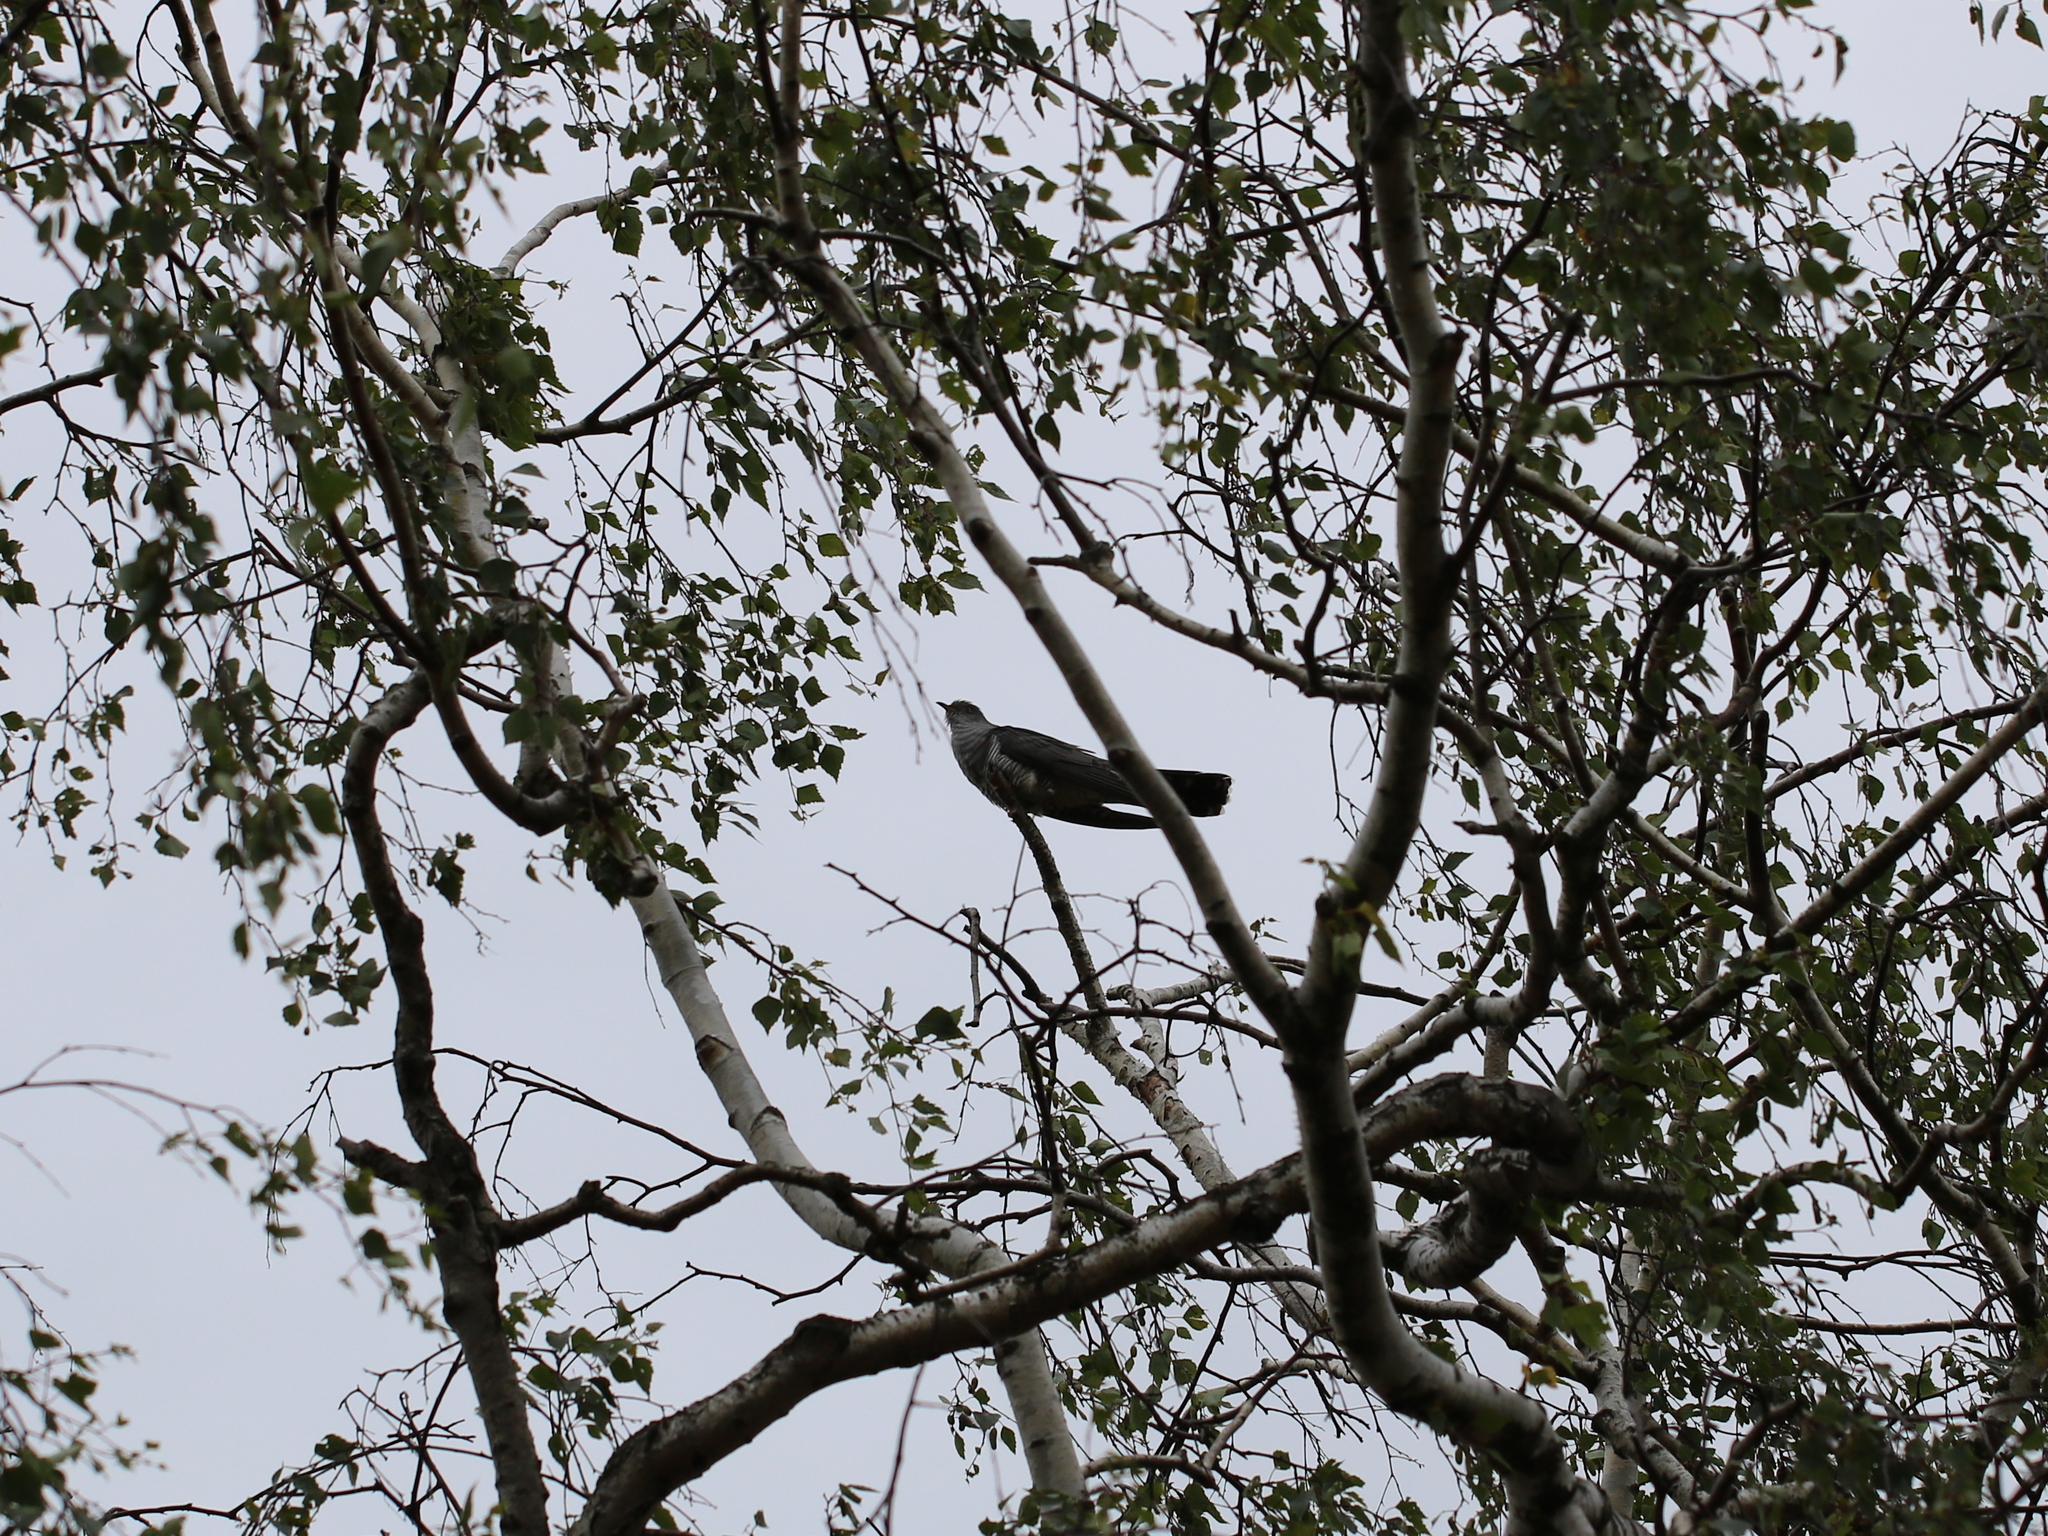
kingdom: Animalia
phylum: Chordata
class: Aves
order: Cuculiformes
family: Cuculidae
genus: Cuculus
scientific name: Cuculus canorus
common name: Common cuckoo
